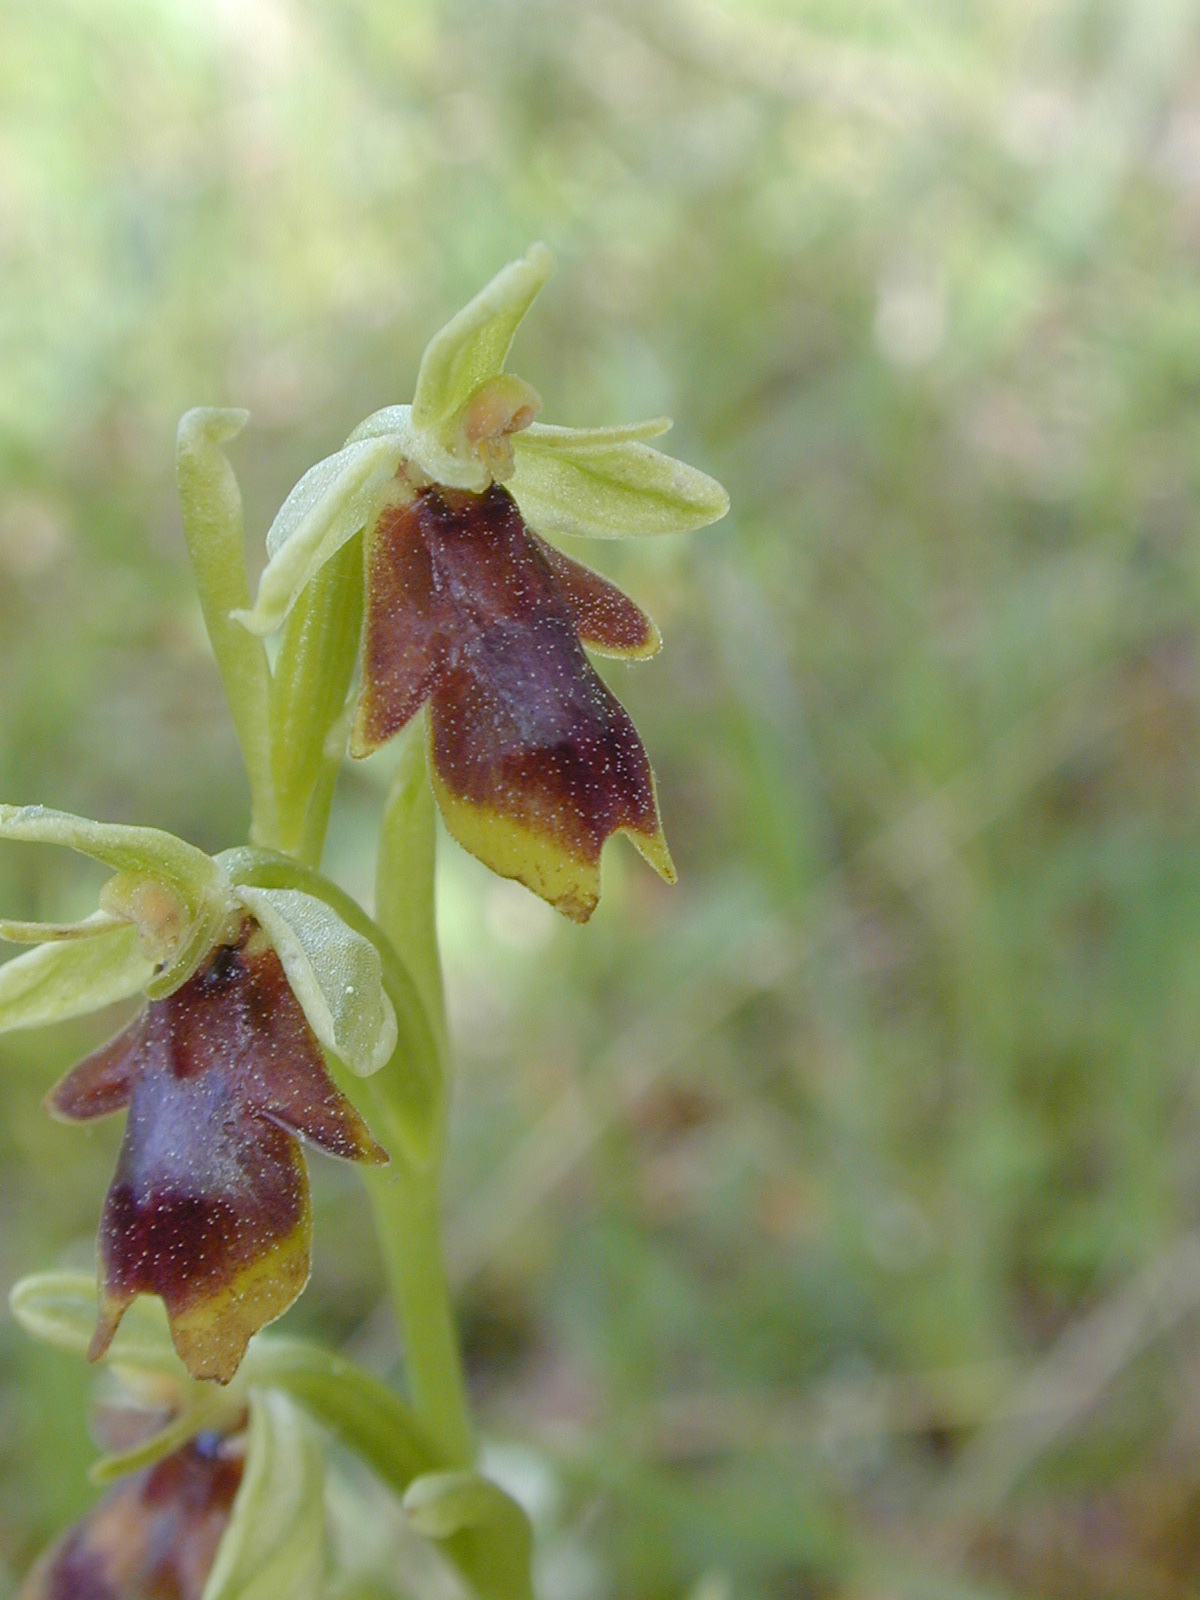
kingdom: Plantae
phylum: Tracheophyta
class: Liliopsida
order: Asparagales
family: Orchidaceae
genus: Ophrys
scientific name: Ophrys insectifera
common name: Fly orchid
